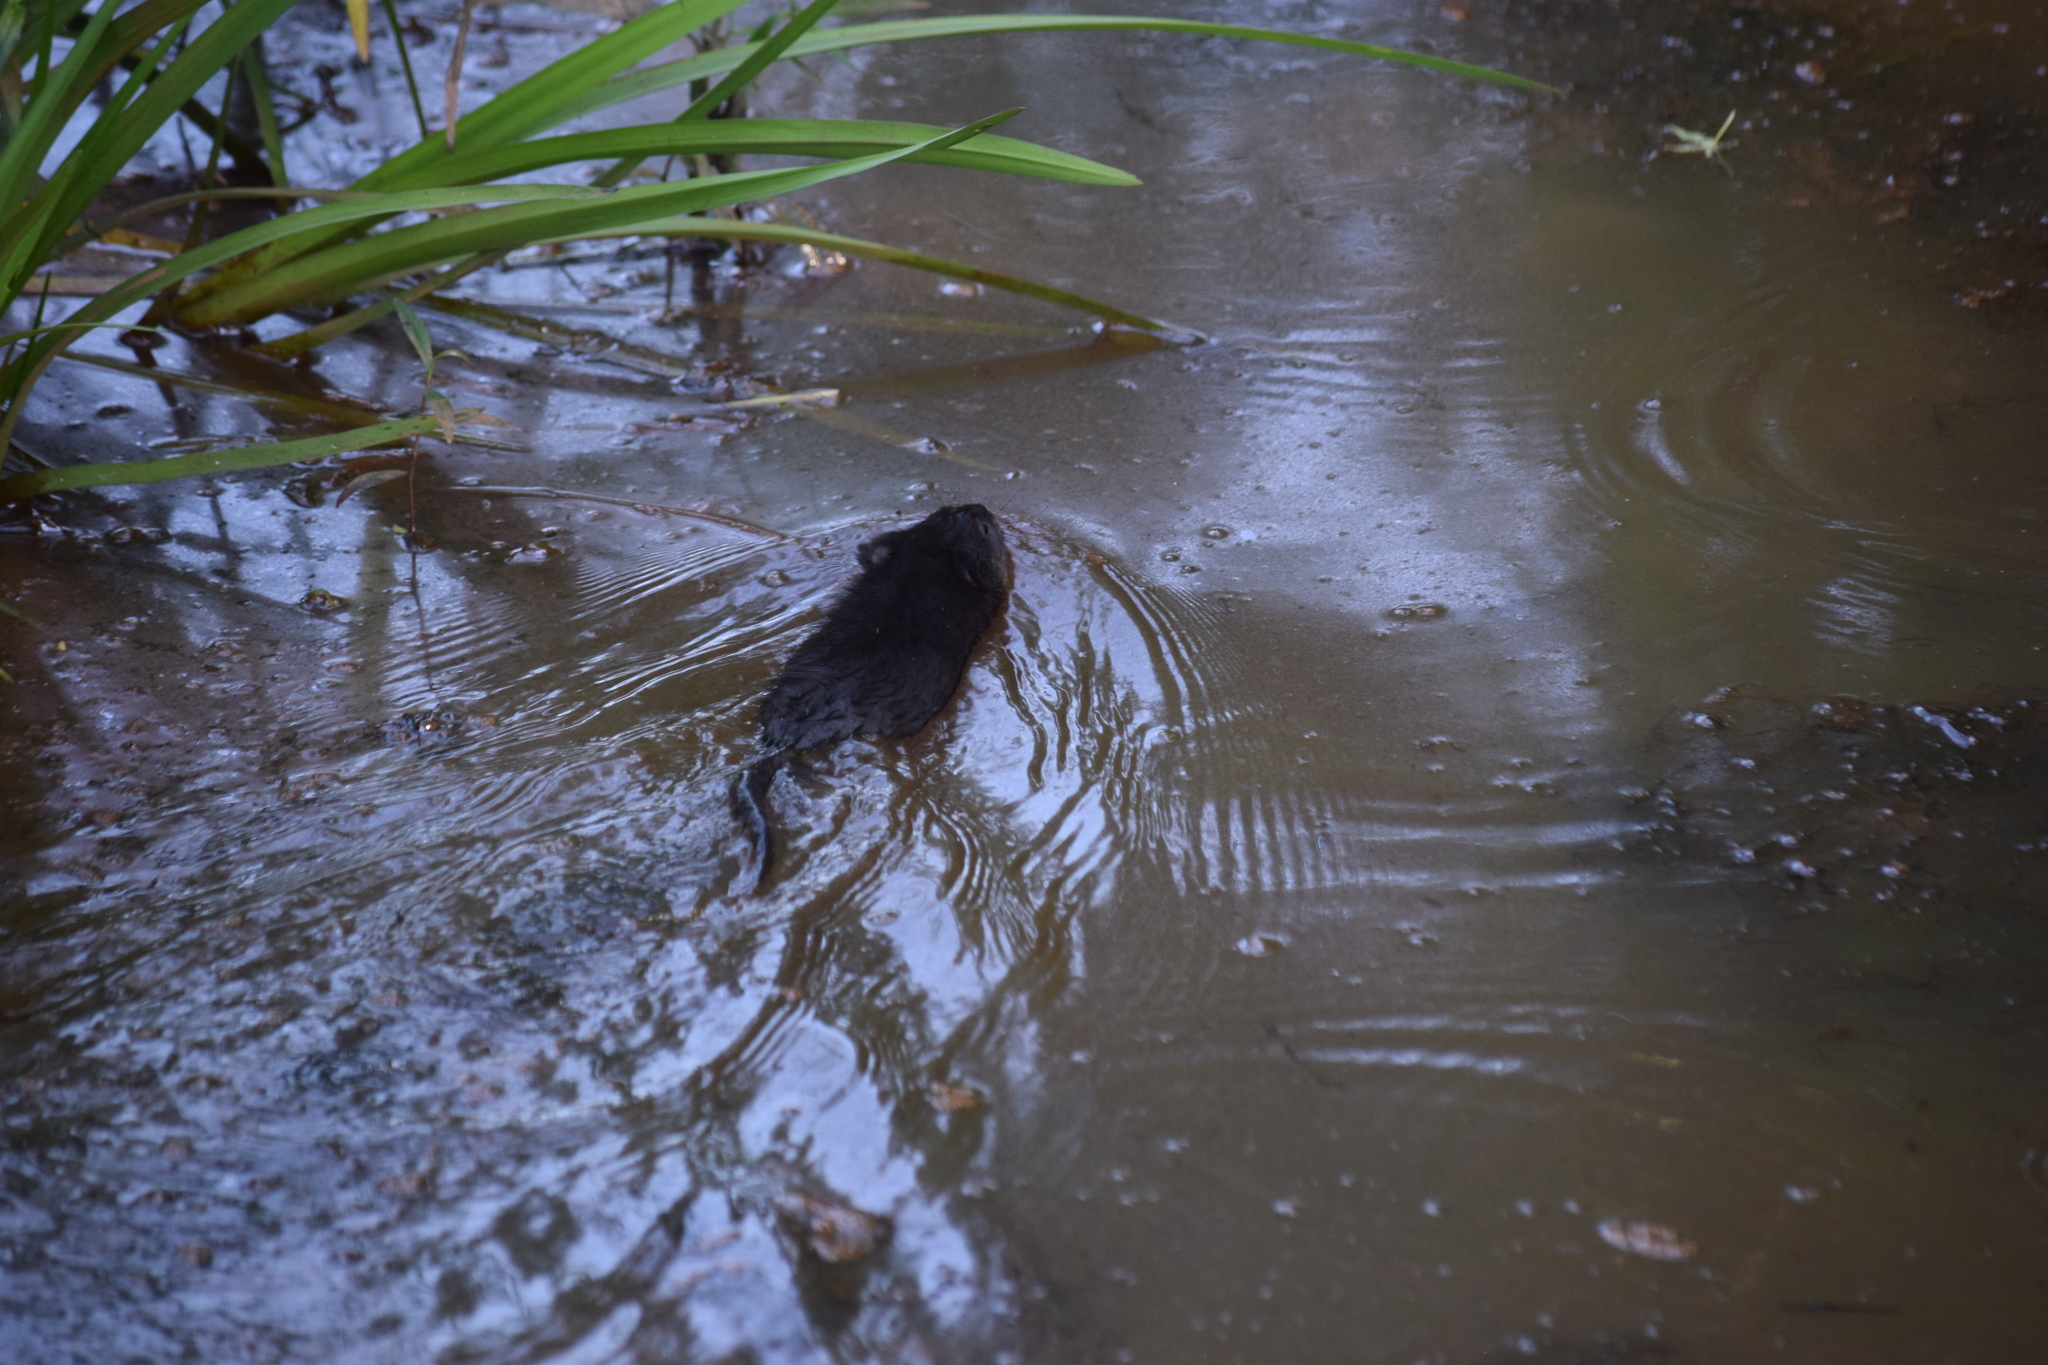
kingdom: Animalia
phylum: Chordata
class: Mammalia
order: Rodentia
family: Cricetidae
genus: Ondatra
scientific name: Ondatra zibethicus
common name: Muskrat
